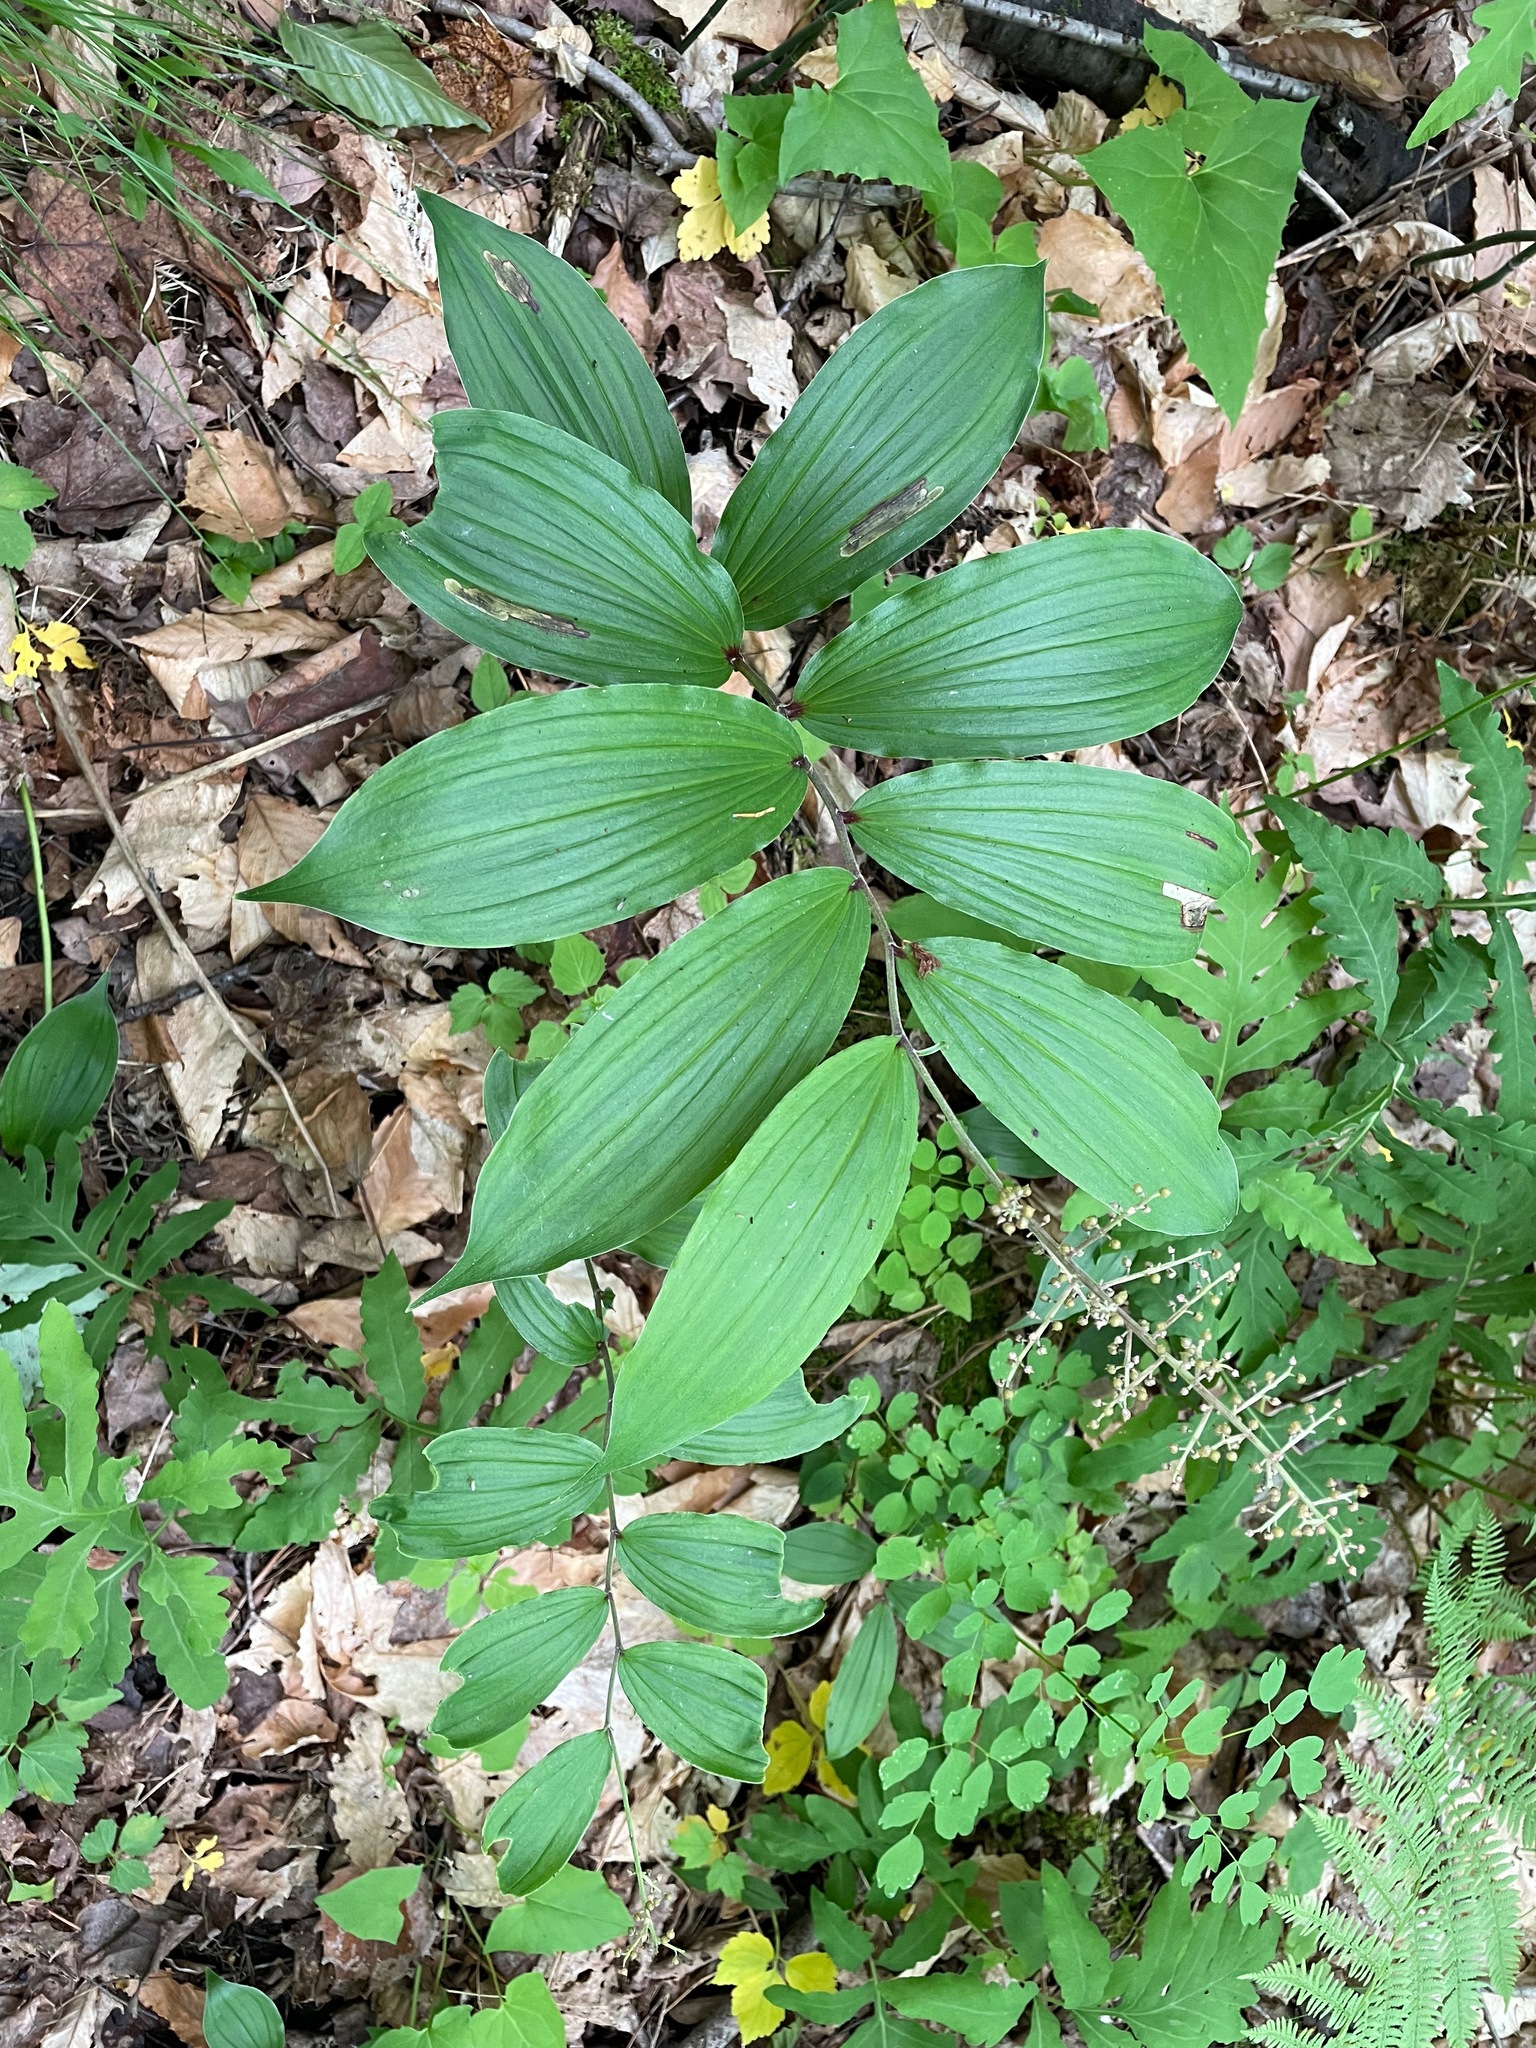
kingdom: Plantae
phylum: Tracheophyta
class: Liliopsida
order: Asparagales
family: Asparagaceae
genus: Maianthemum
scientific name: Maianthemum racemosum
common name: False spikenard
